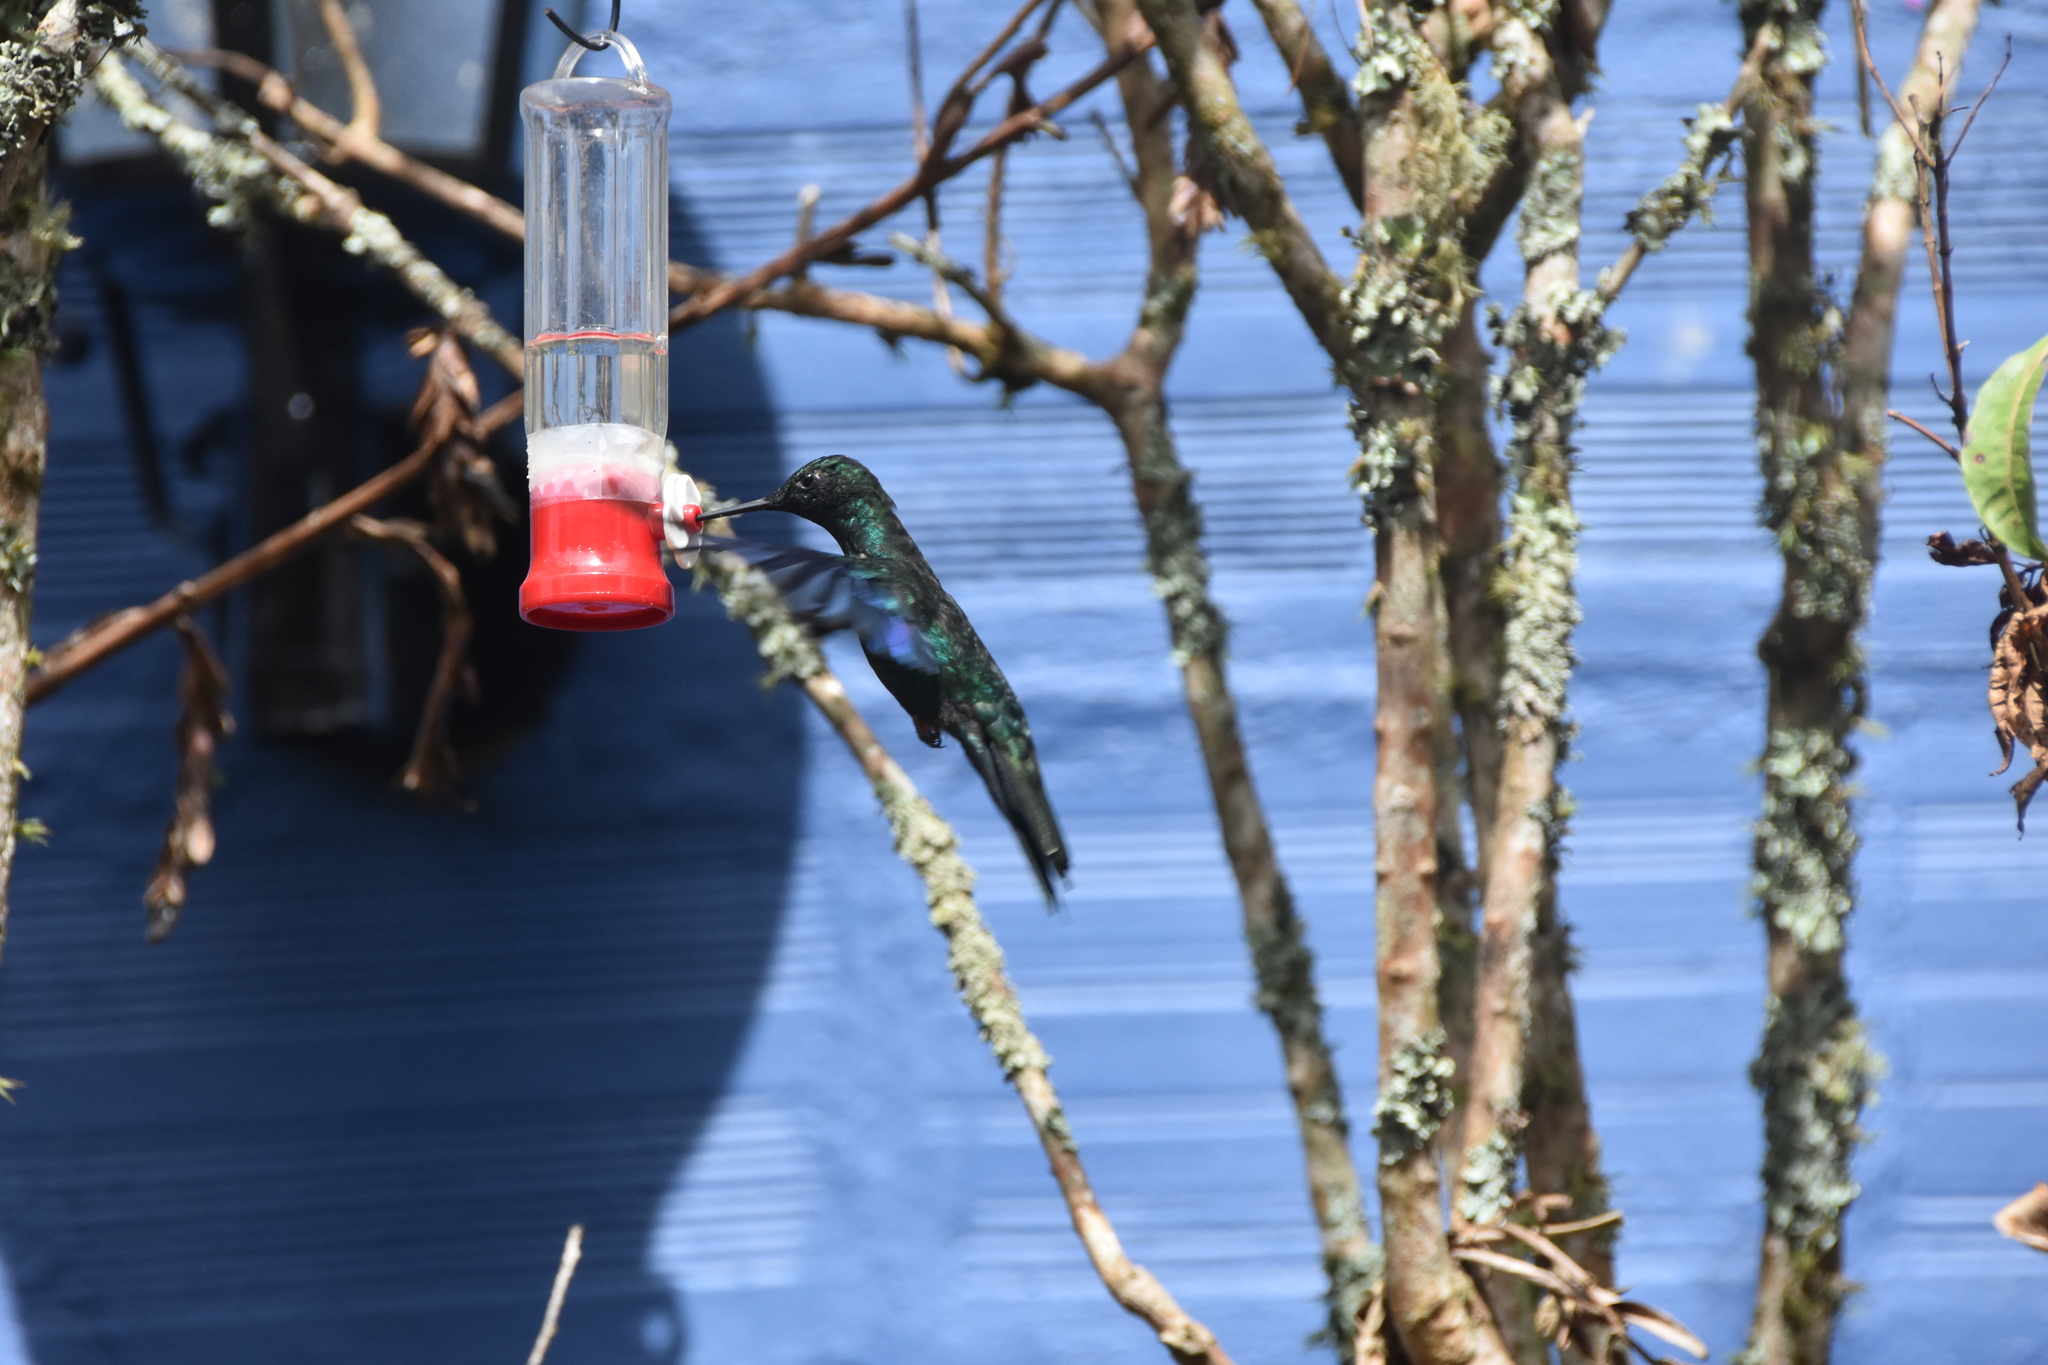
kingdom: Animalia
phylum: Chordata
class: Aves
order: Apodiformes
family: Trochilidae
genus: Pterophanes
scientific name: Pterophanes cyanopterus
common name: Great sapphirewing
